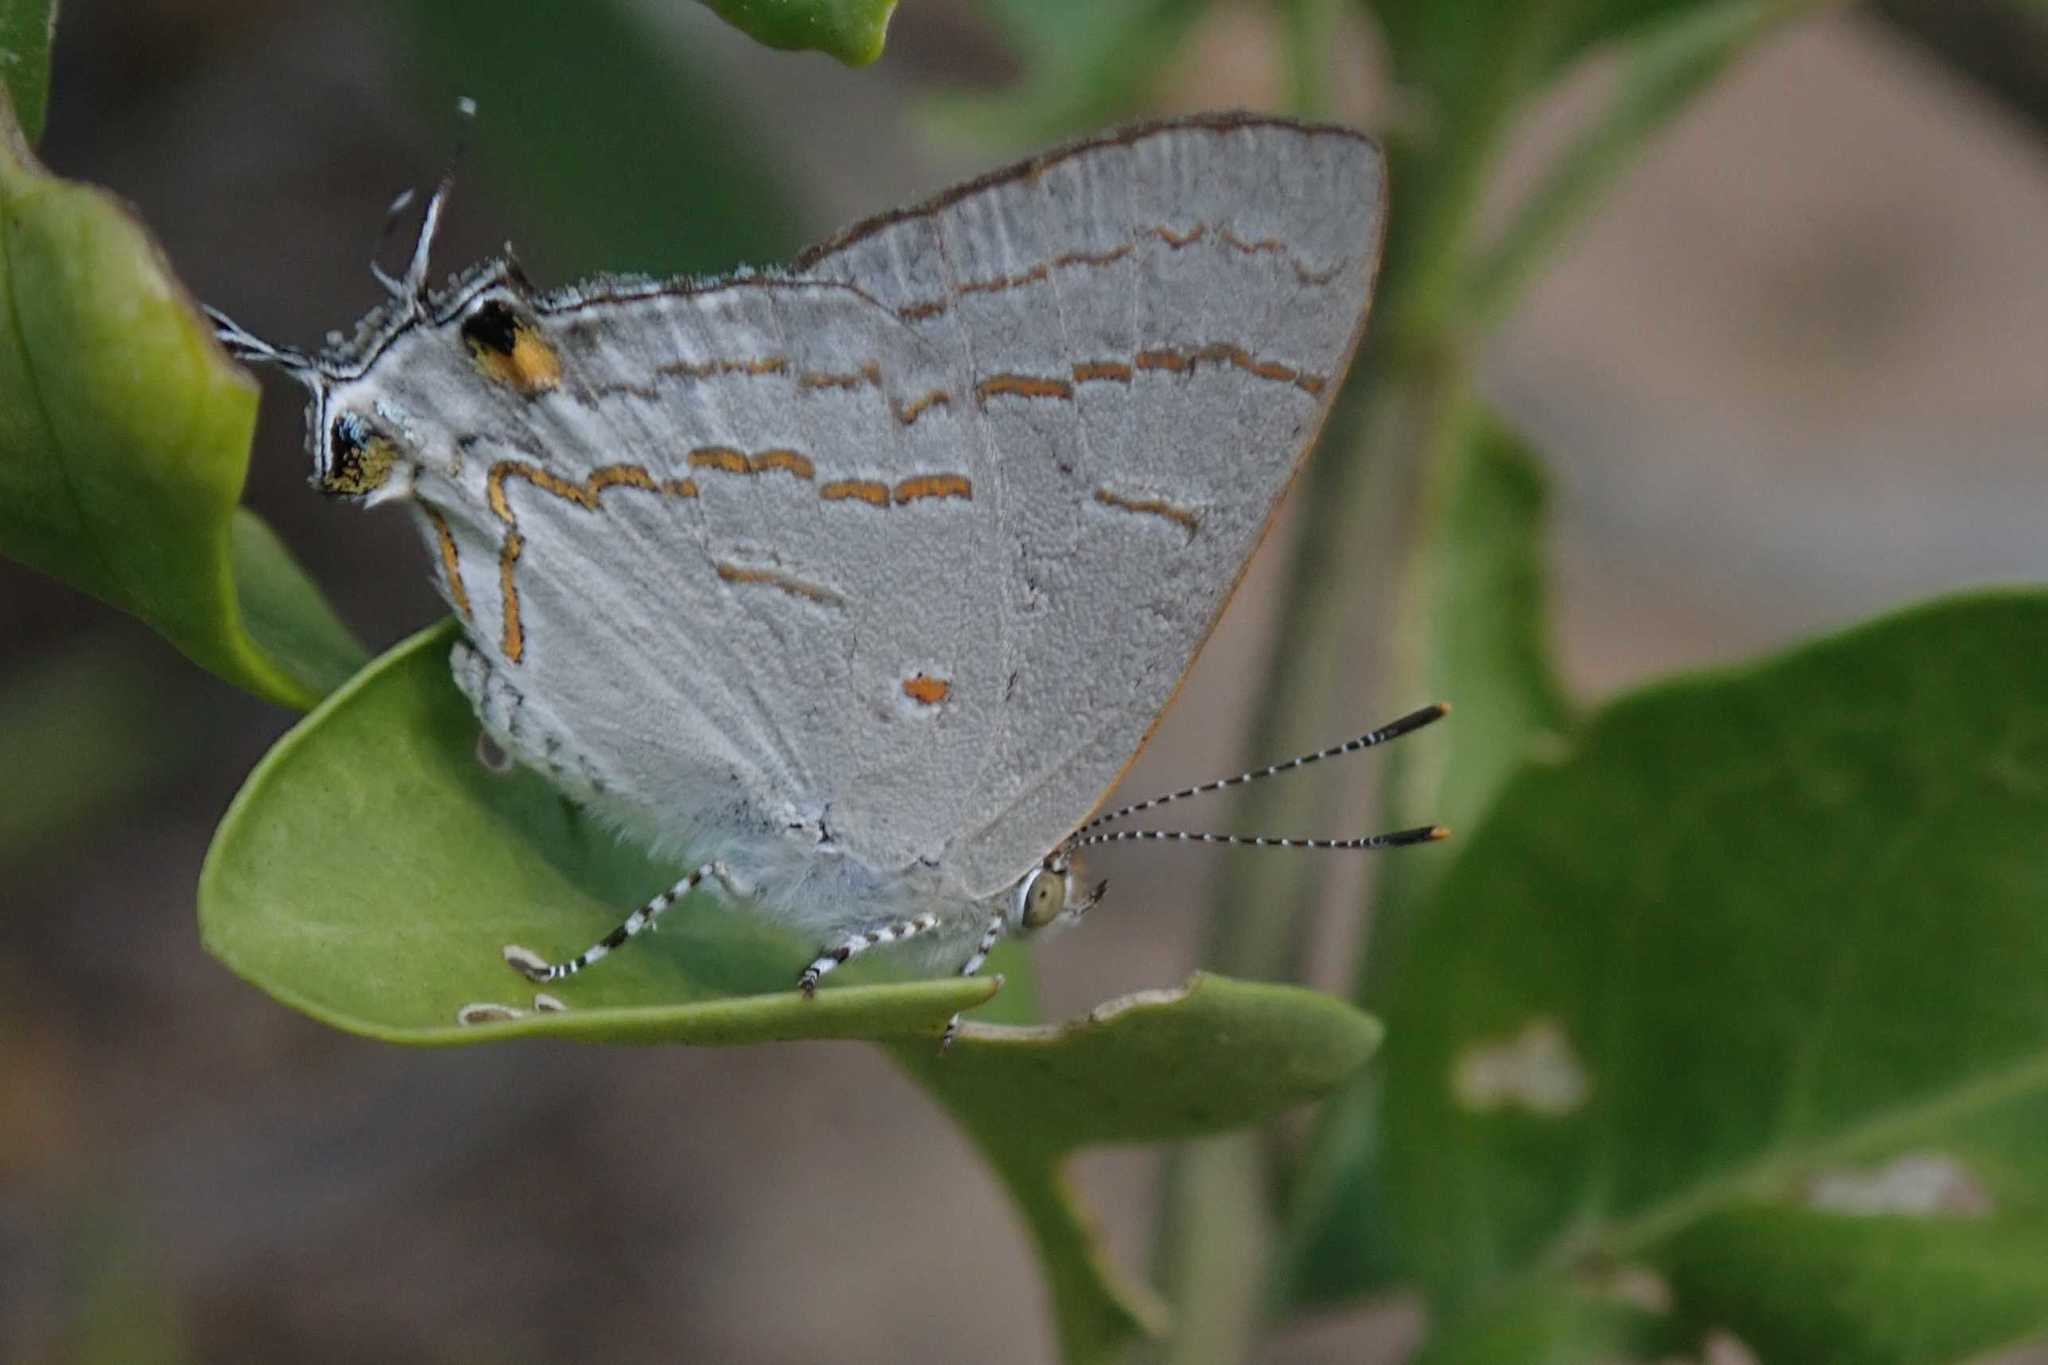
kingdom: Animalia
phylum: Arthropoda
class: Insecta
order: Lepidoptera
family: Lycaenidae
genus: Hypolycaena
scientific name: Hypolycaena philippus
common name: Common hairstreak
